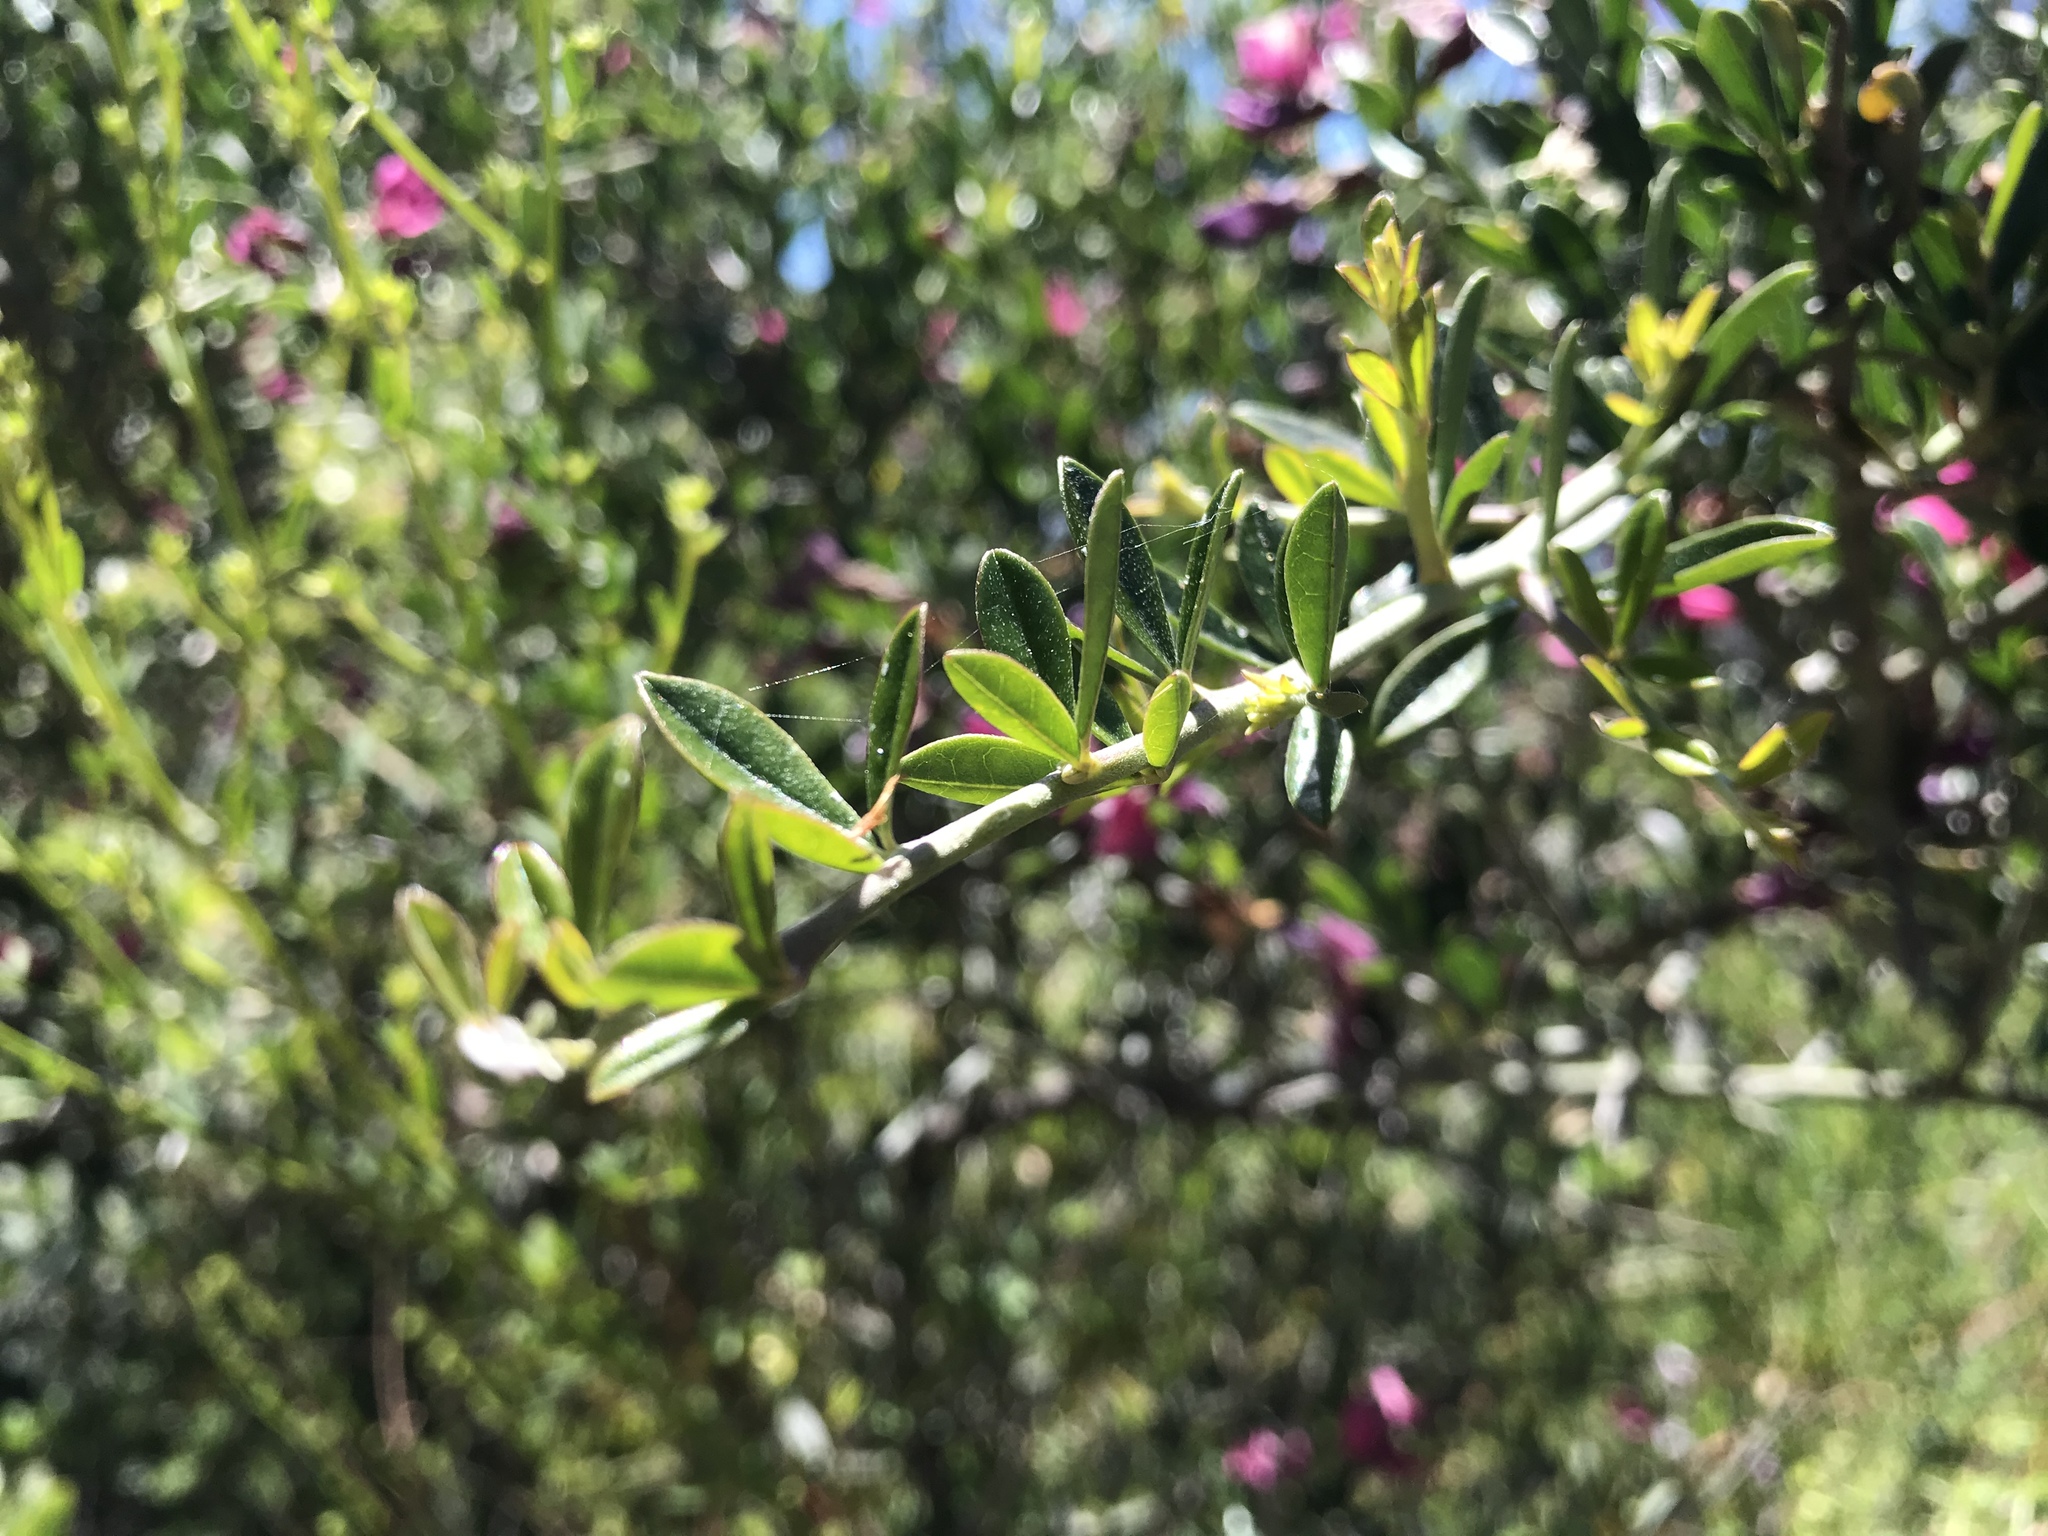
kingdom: Plantae
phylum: Tracheophyta
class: Magnoliopsida
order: Fabales
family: Fabaceae
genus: Pickeringia
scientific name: Pickeringia montana
